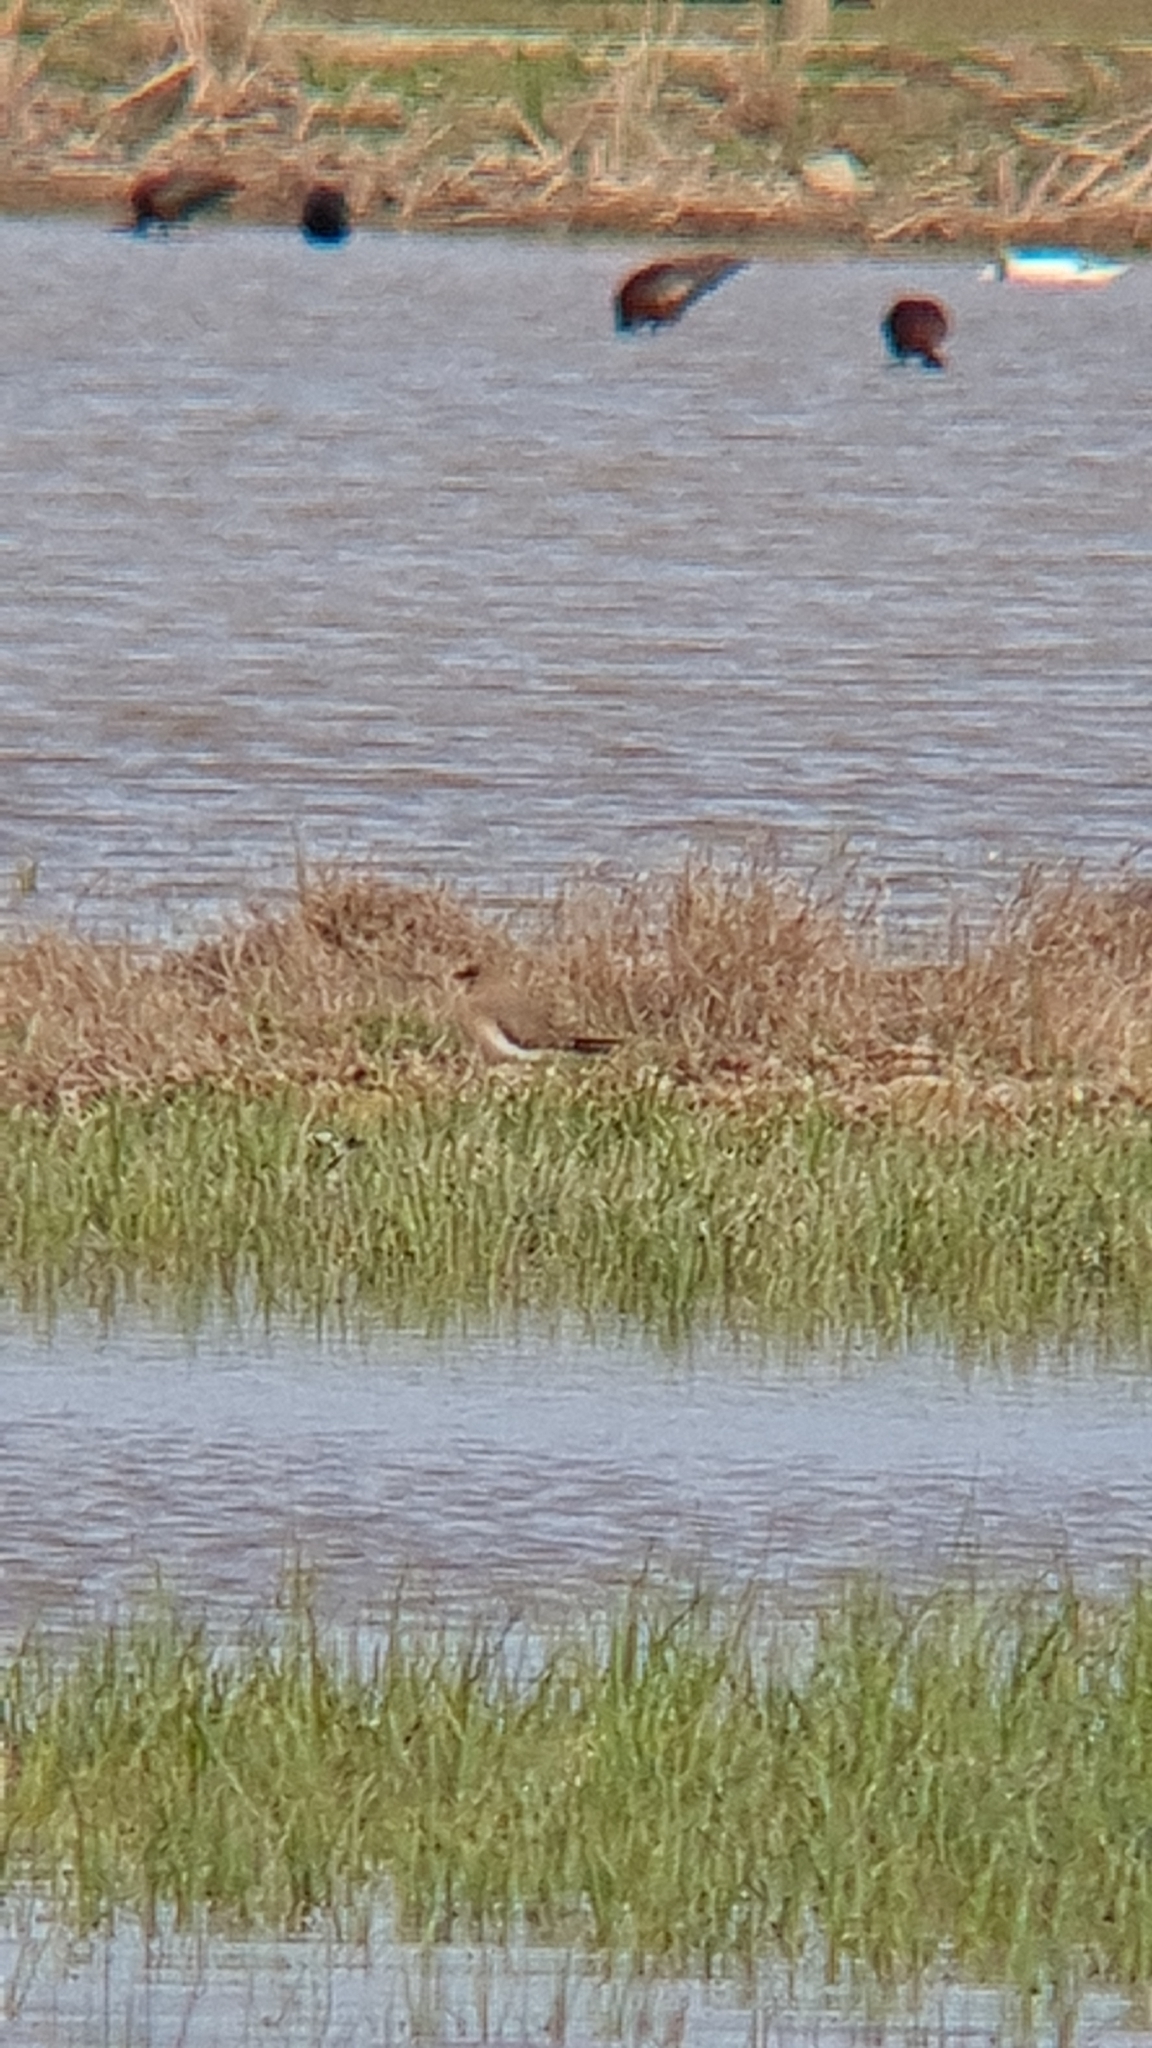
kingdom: Animalia
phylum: Chordata
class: Aves
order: Charadriiformes
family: Glareolidae
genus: Glareola
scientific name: Glareola pratincola
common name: Collared pratincole
